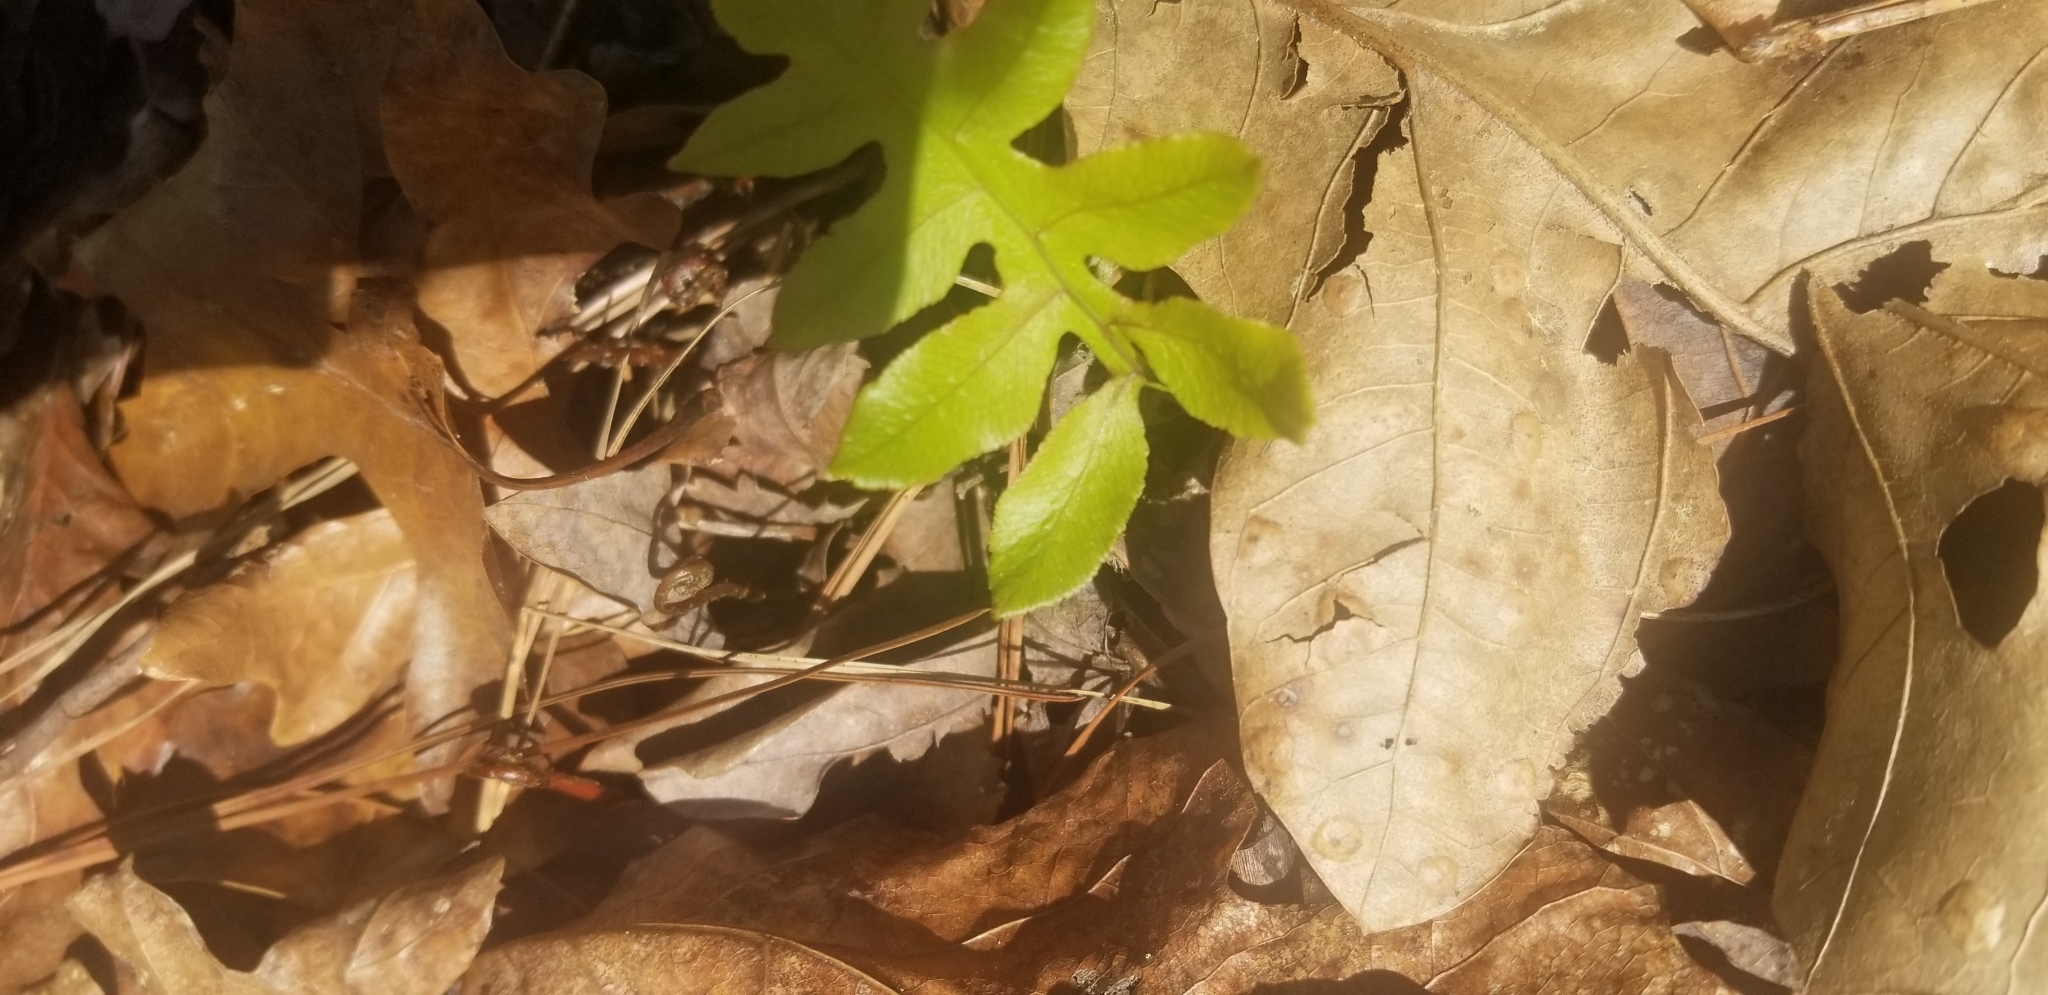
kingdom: Plantae
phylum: Tracheophyta
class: Polypodiopsida
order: Polypodiales
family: Blechnaceae
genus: Lorinseria
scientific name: Lorinseria areolata
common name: Dwarf chain fern
